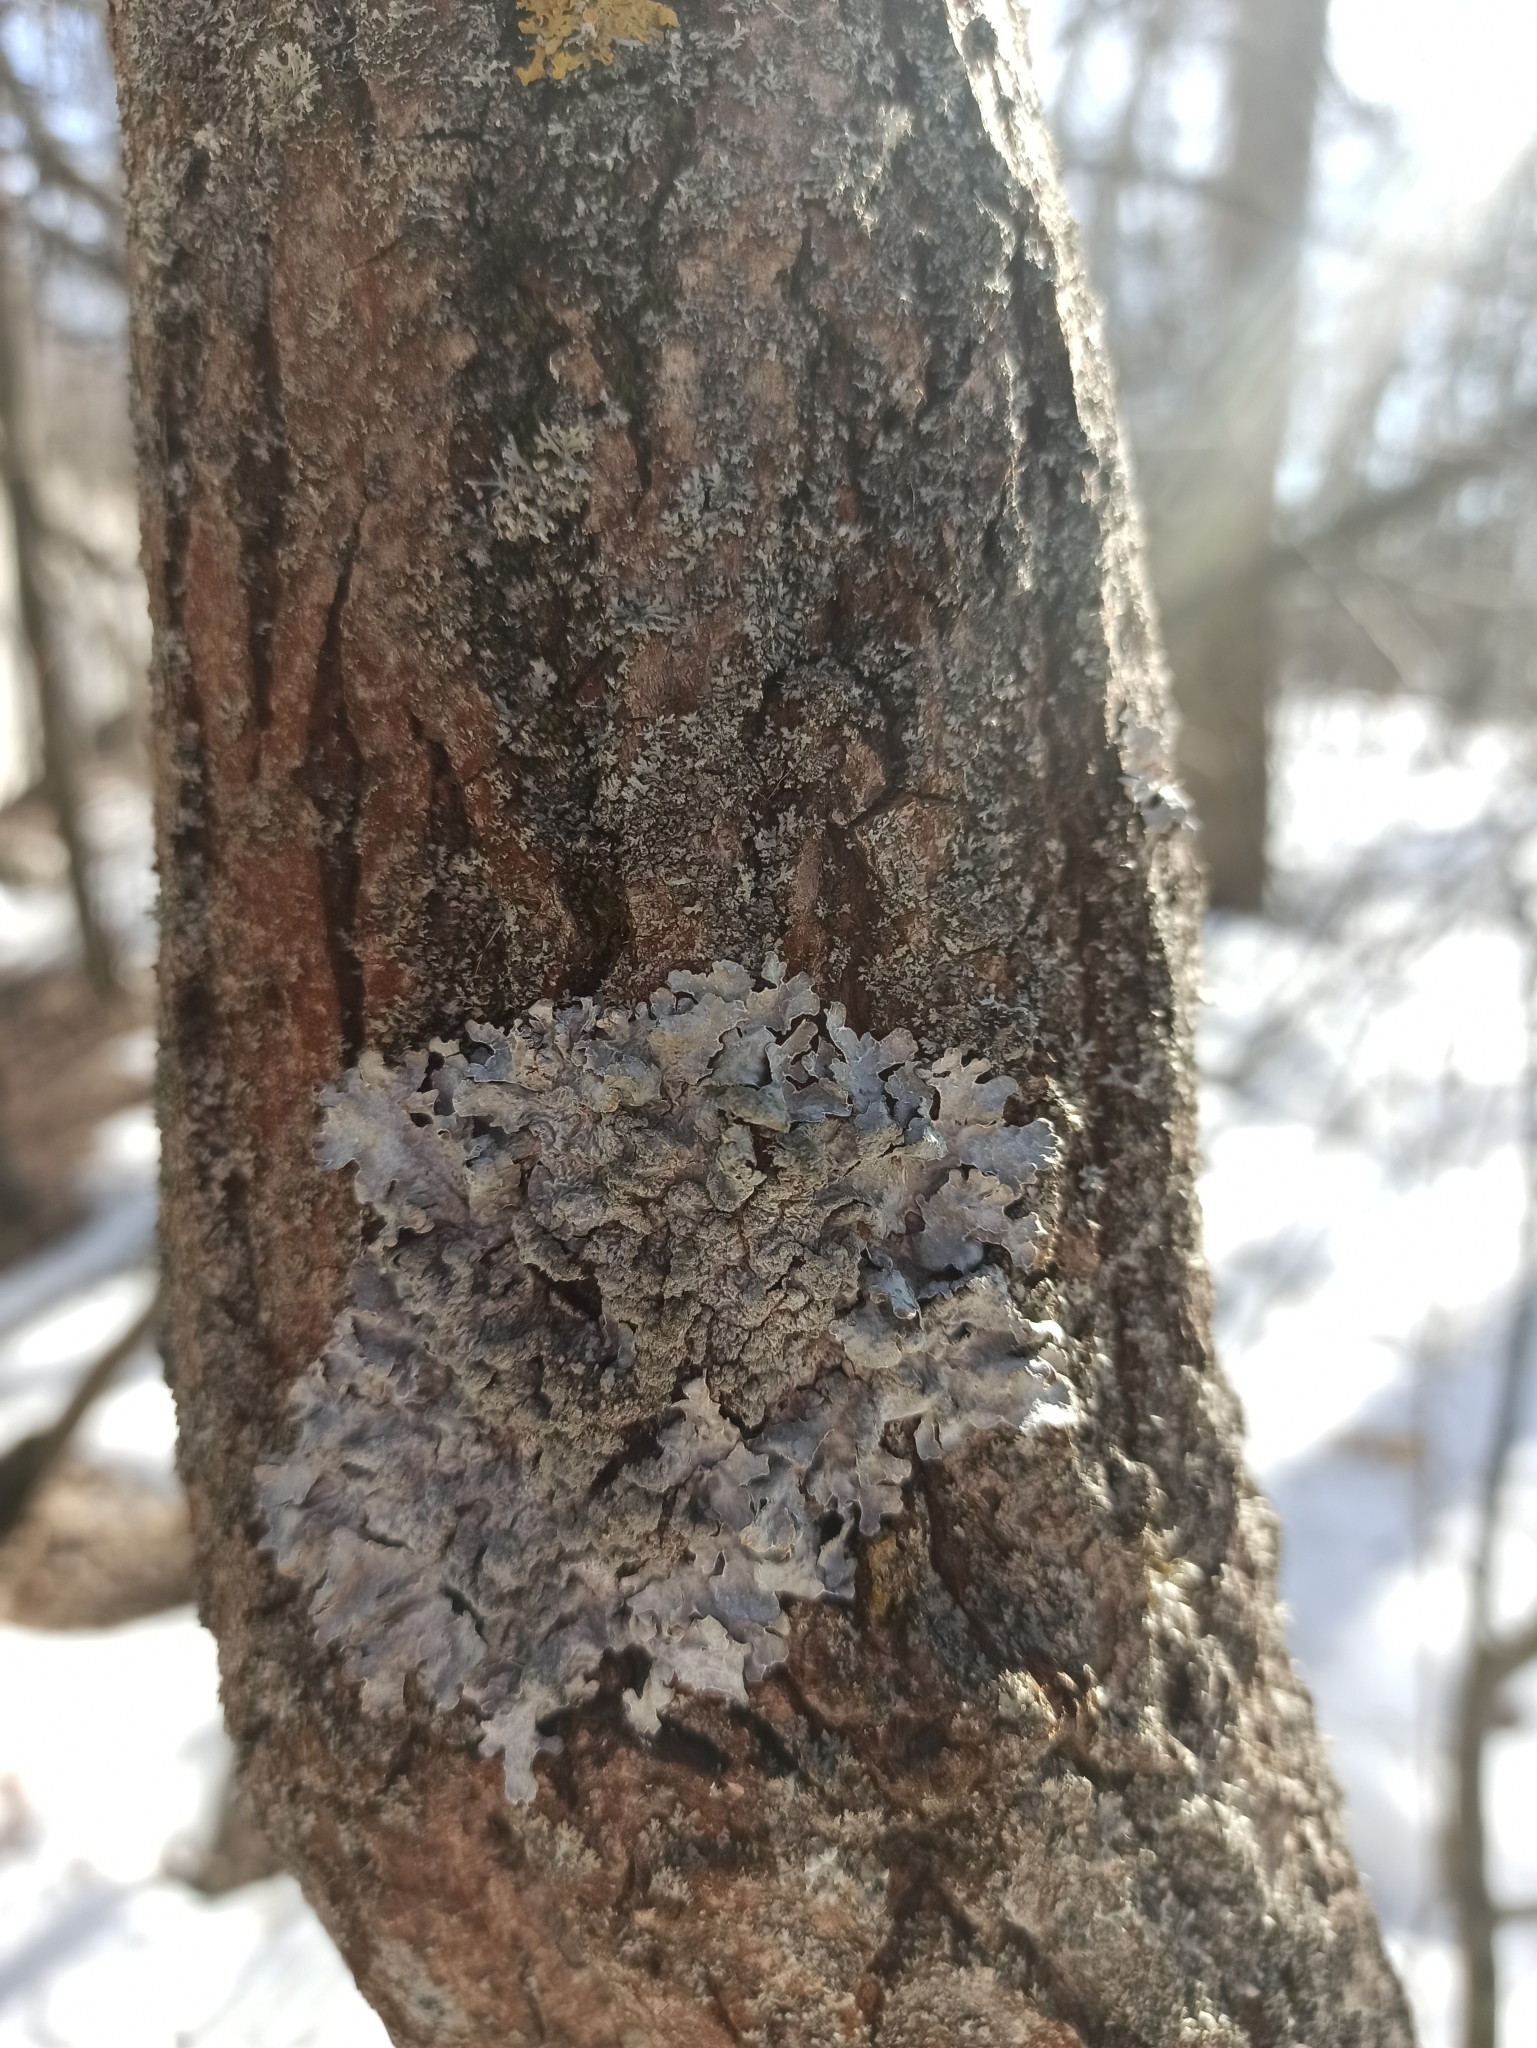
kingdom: Fungi
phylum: Ascomycota
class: Lecanoromycetes
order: Lecanorales
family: Parmeliaceae
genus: Parmelia
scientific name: Parmelia sulcata
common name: Netted shield lichen
